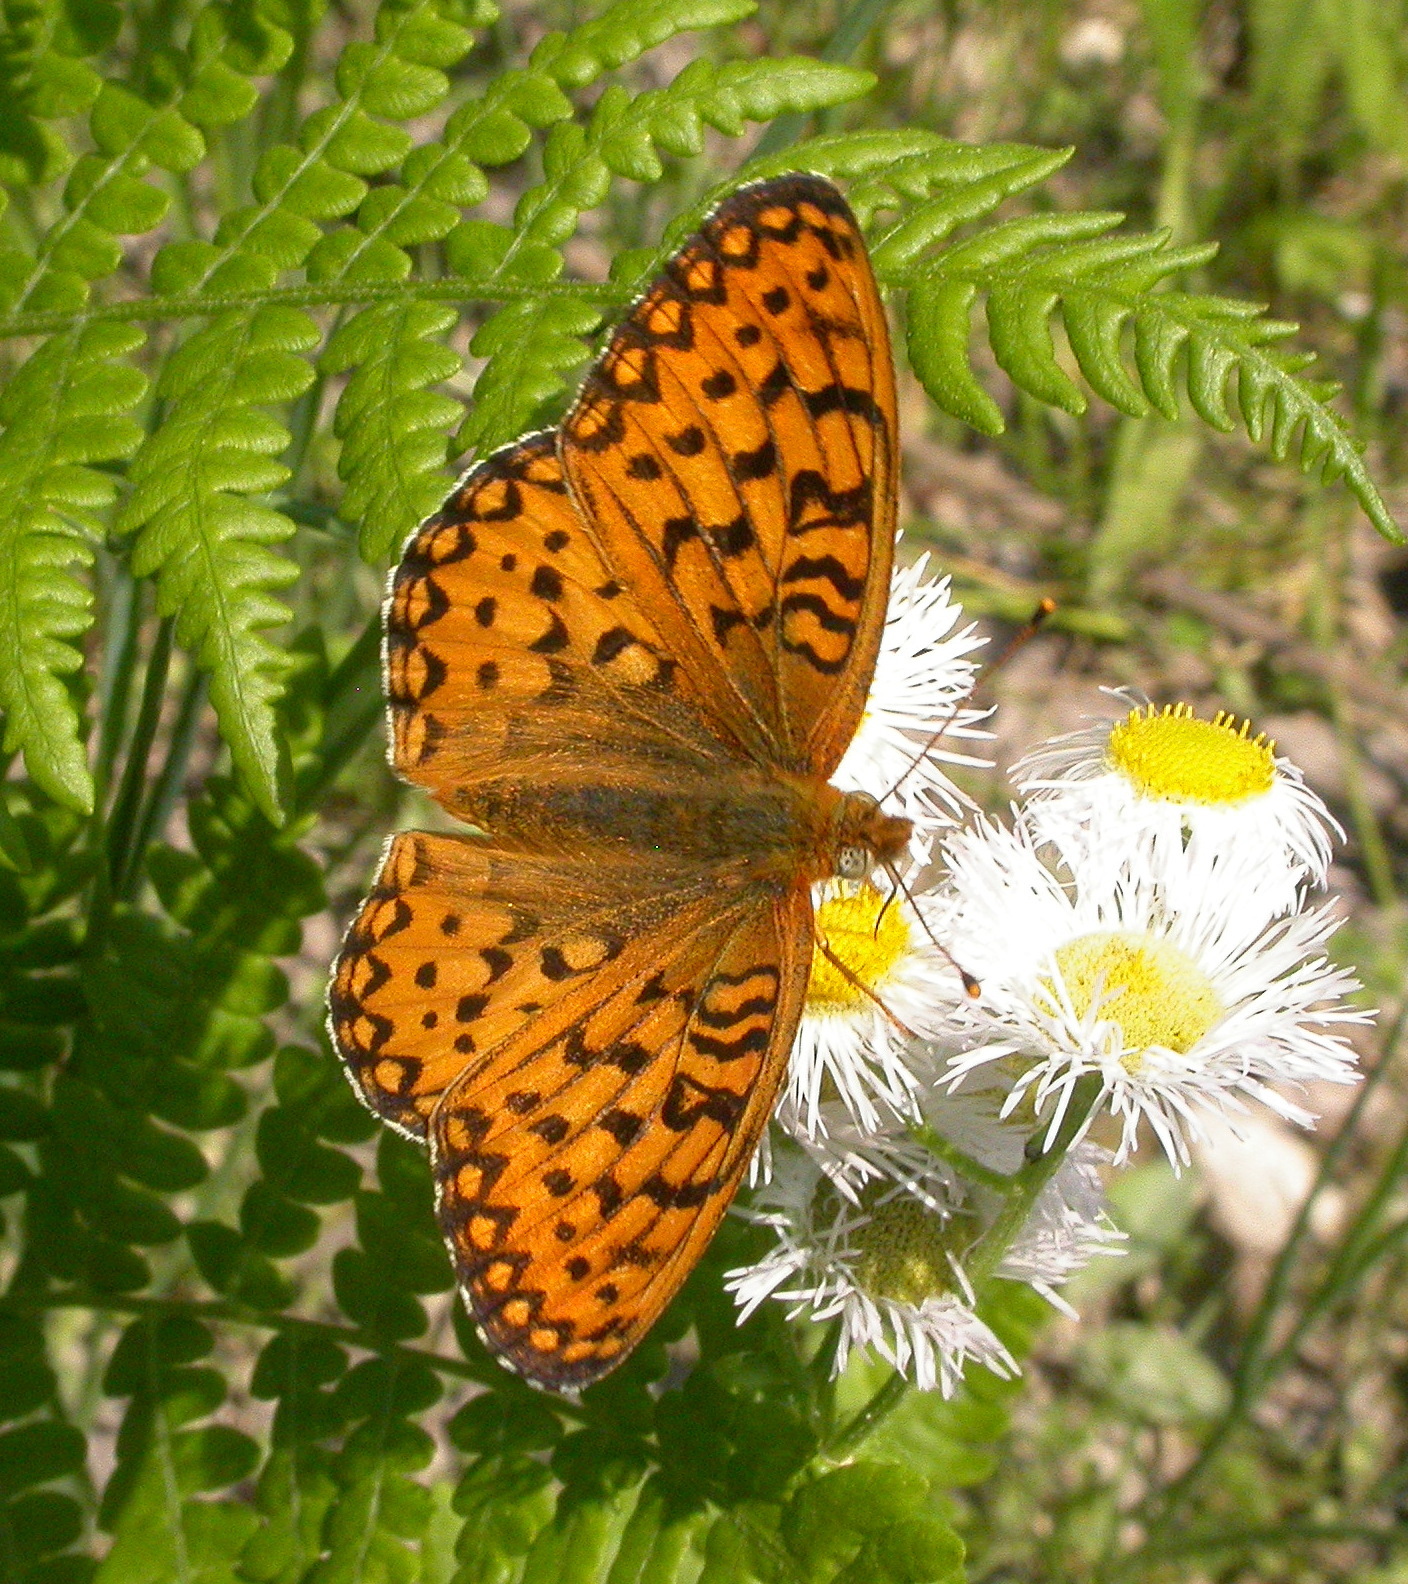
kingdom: Animalia
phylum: Arthropoda
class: Insecta
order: Lepidoptera
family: Nymphalidae
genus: Speyeria
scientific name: Speyeria mormonia
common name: Mormon fritillary
